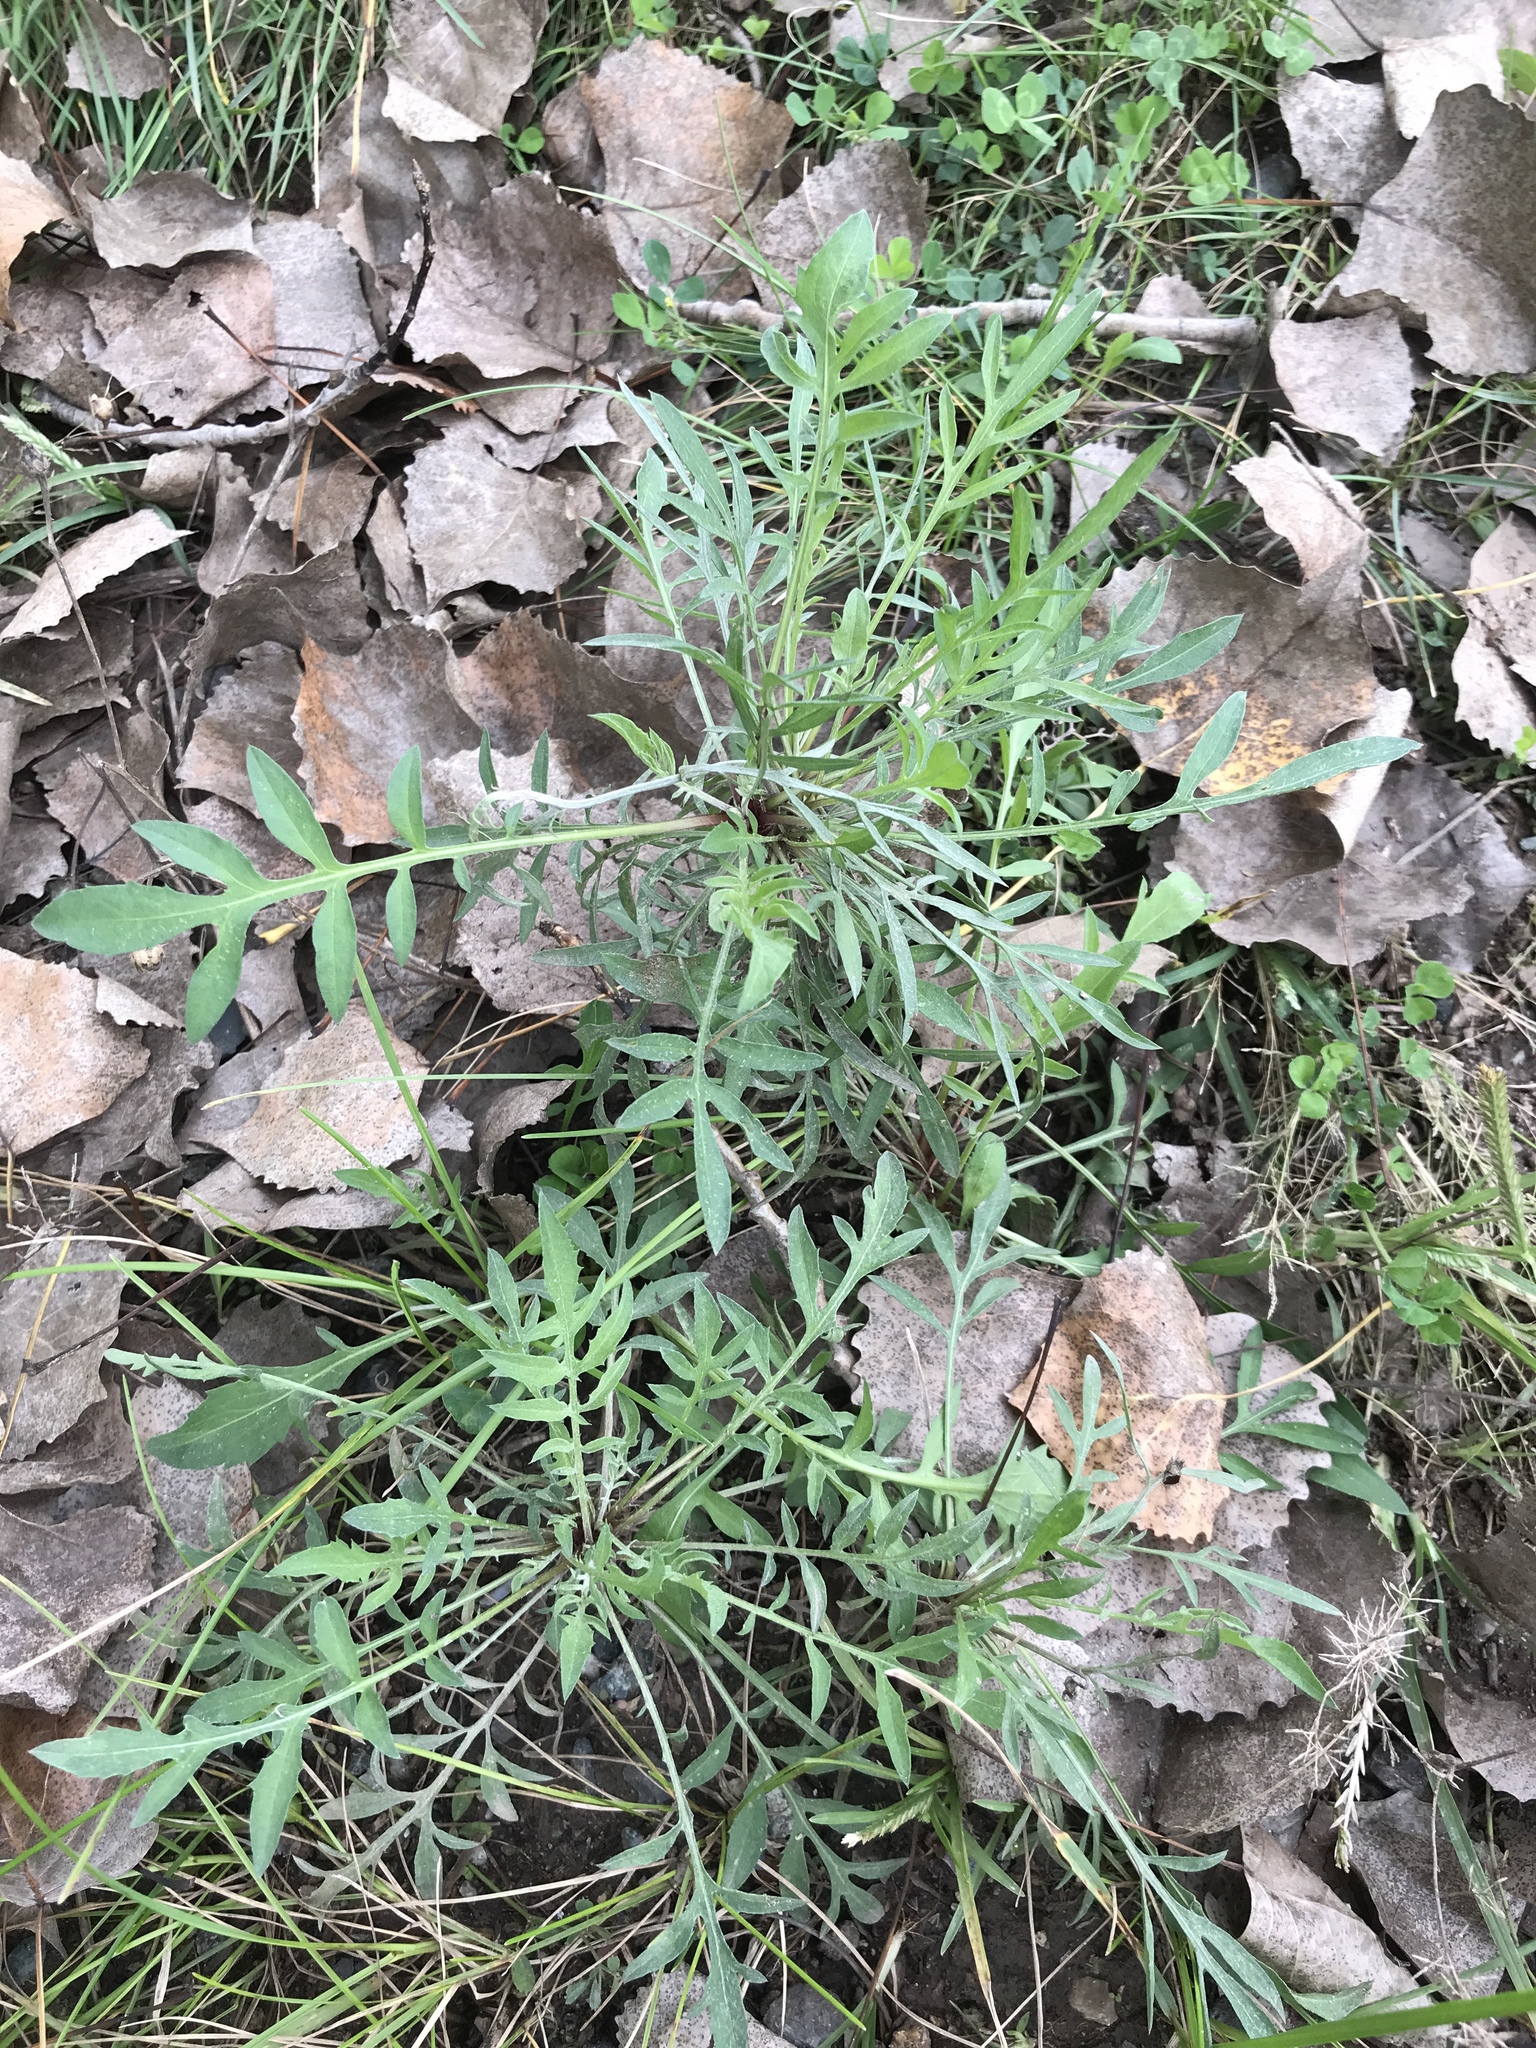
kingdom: Plantae
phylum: Tracheophyta
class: Magnoliopsida
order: Asterales
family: Asteraceae
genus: Centaurea
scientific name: Centaurea stoebe
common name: Spotted knapweed
